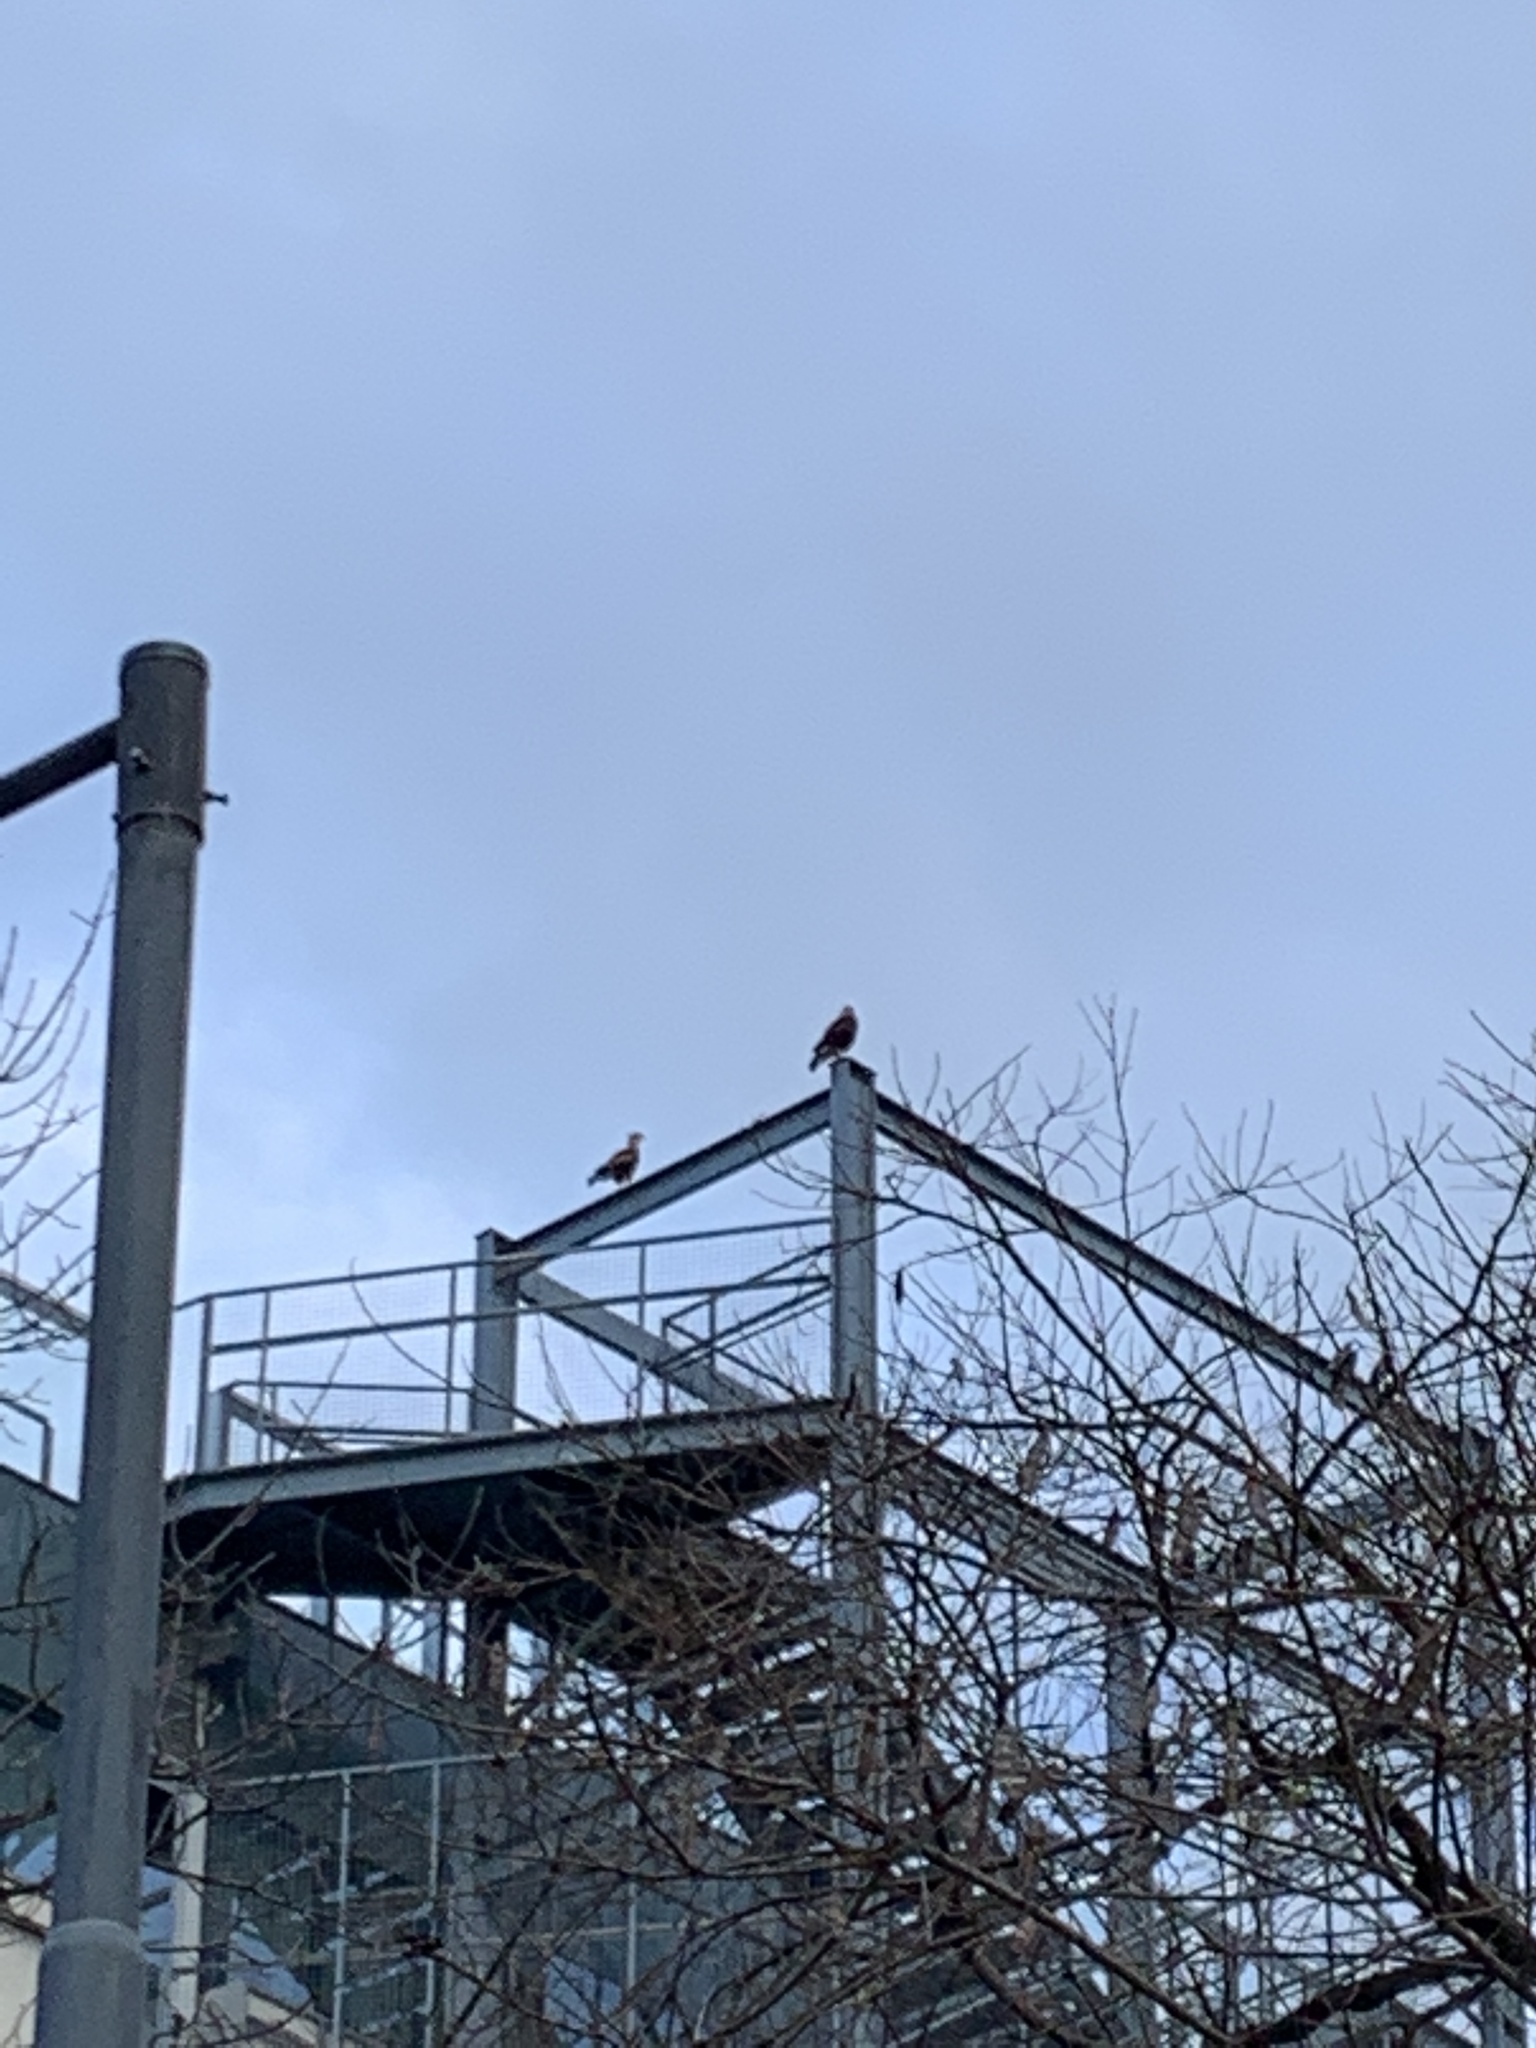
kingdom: Animalia
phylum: Chordata
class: Aves
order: Falconiformes
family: Falconidae
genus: Caracara
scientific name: Caracara plancus
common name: Southern caracara
